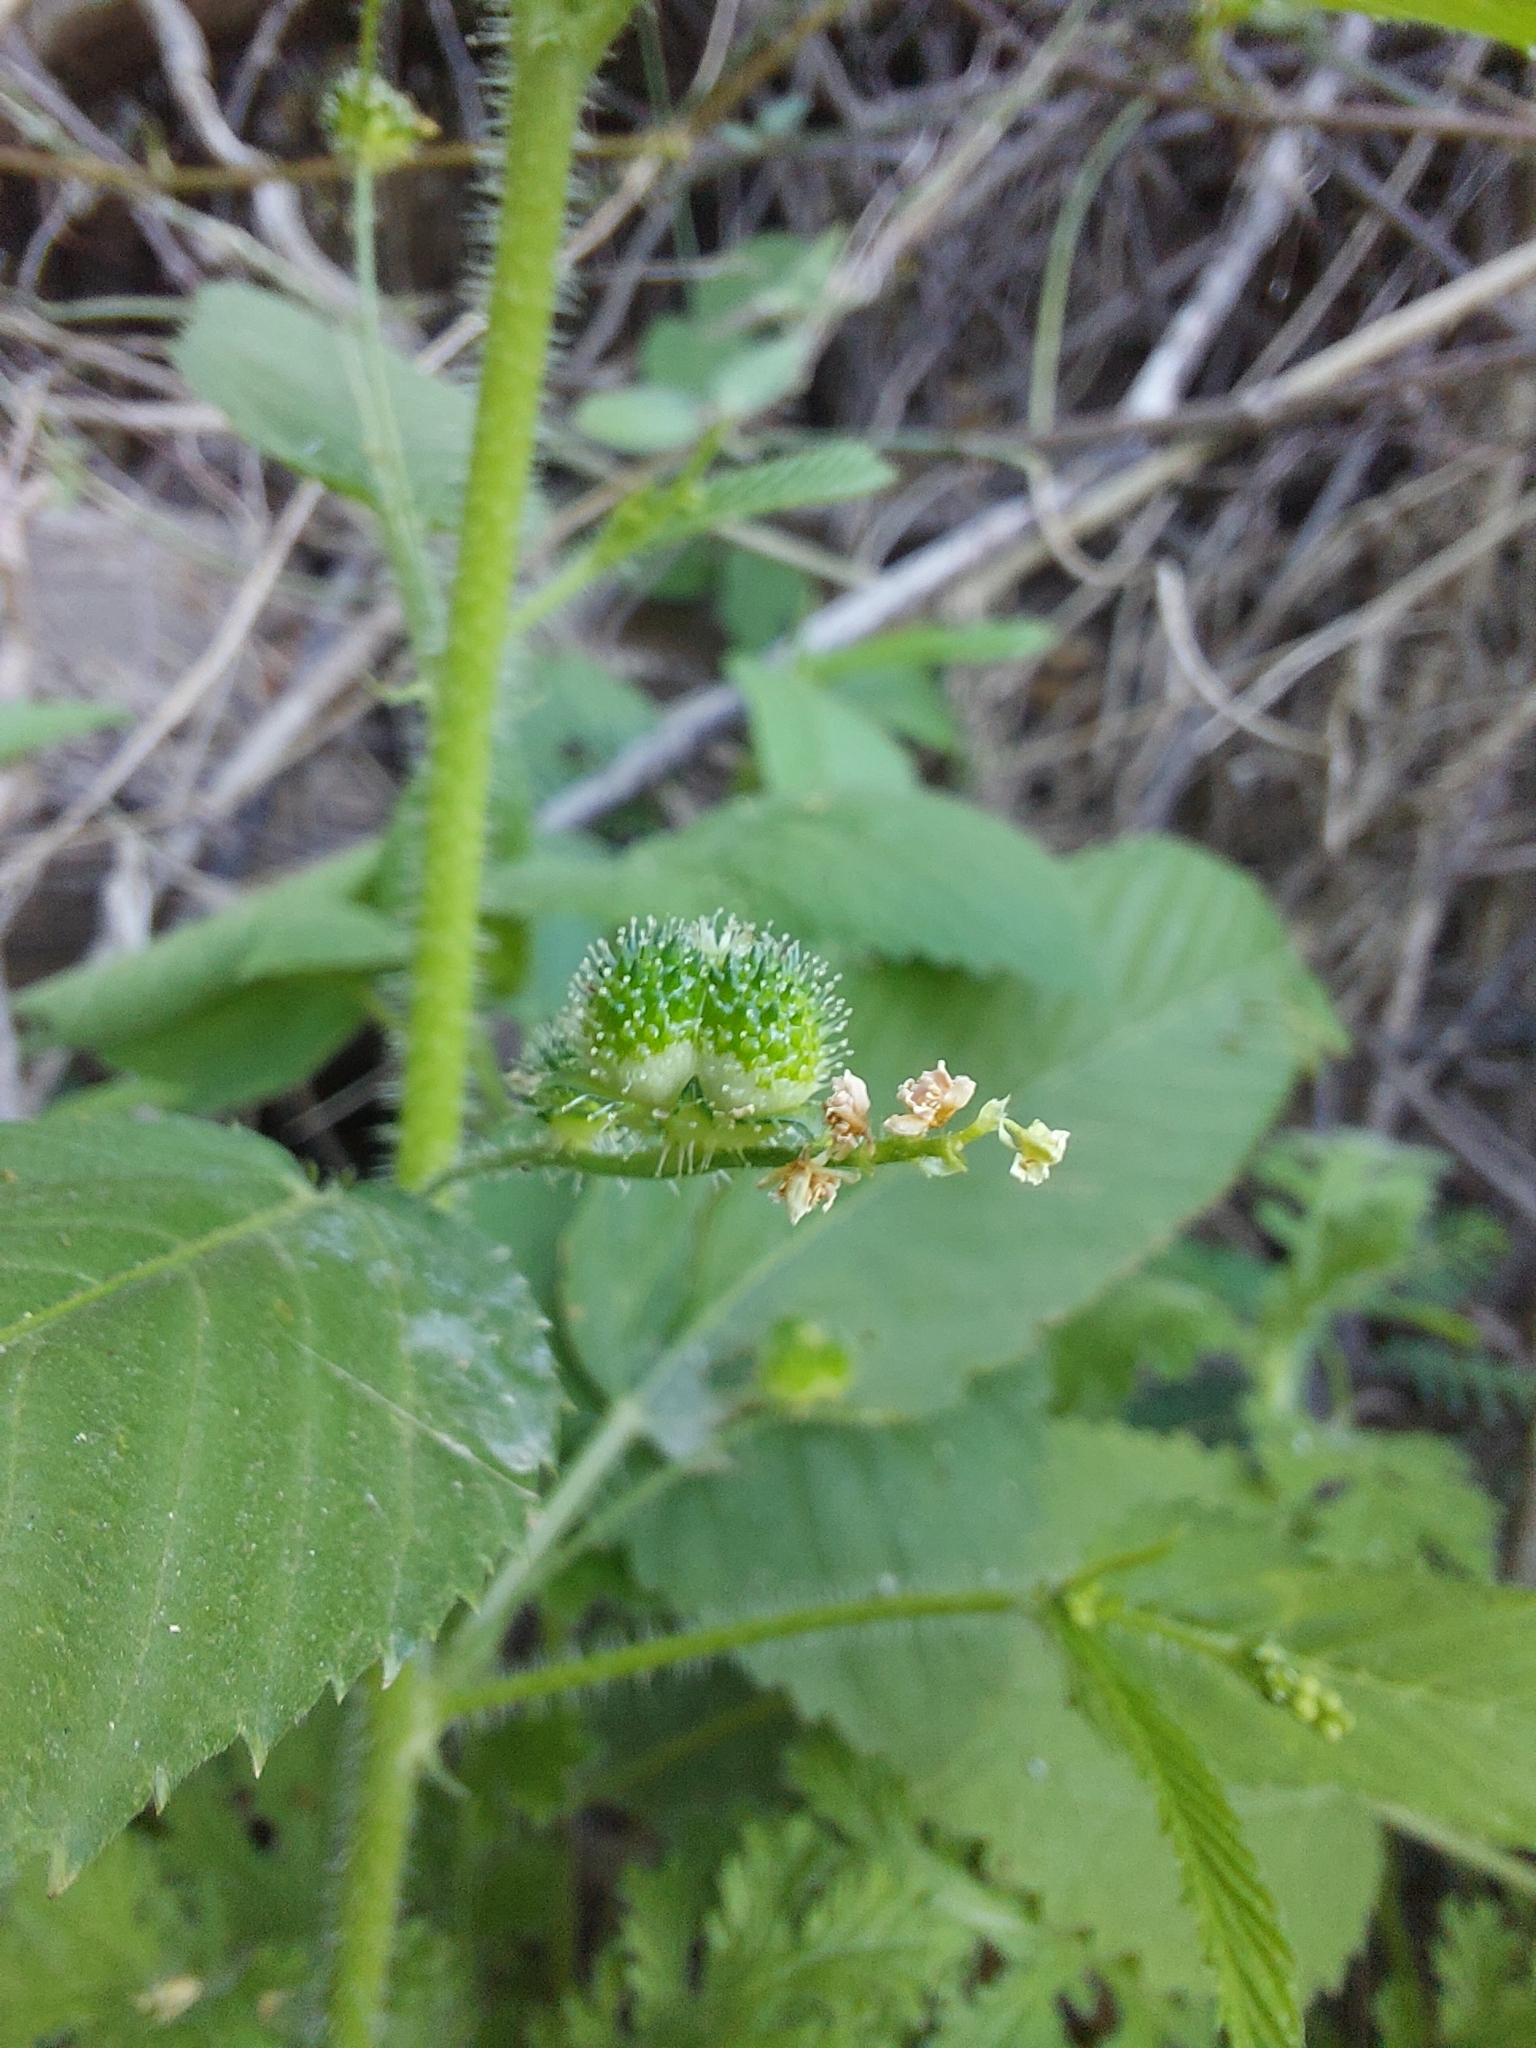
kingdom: Plantae
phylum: Tracheophyta
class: Magnoliopsida
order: Malpighiales
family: Euphorbiaceae
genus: Caperonia
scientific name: Caperonia palustris
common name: Sacatrapo
